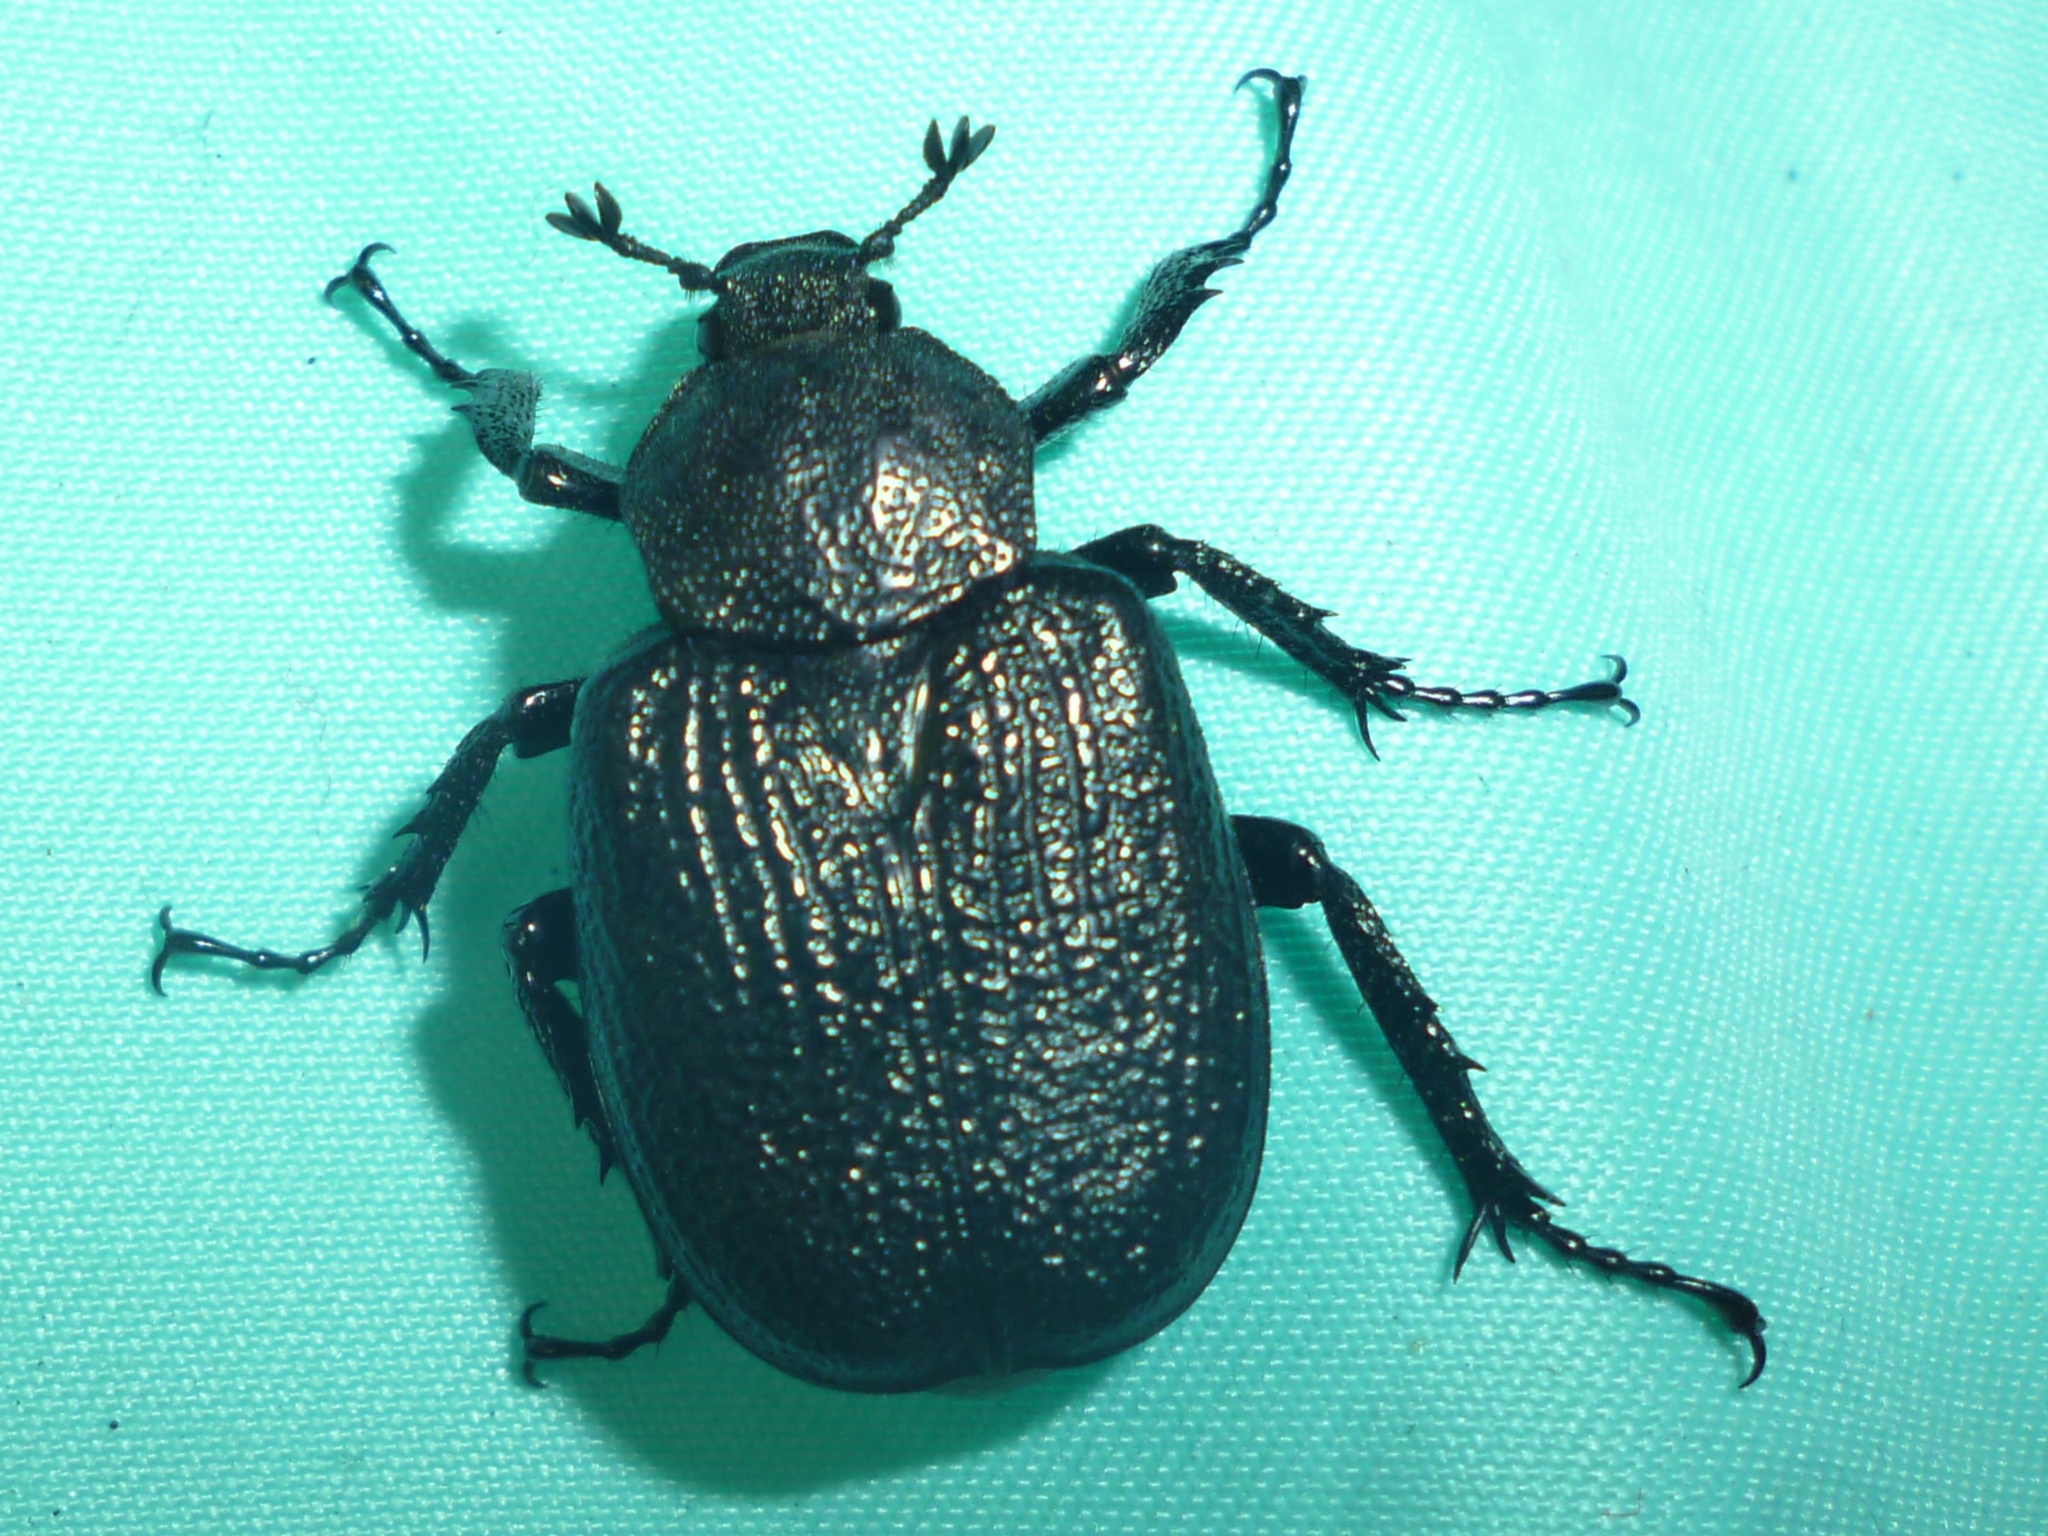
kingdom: Animalia
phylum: Arthropoda
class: Insecta
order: Coleoptera
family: Scarabaeidae
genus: Osmoderma
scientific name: Osmoderma scabra
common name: Rough hermit beetle
